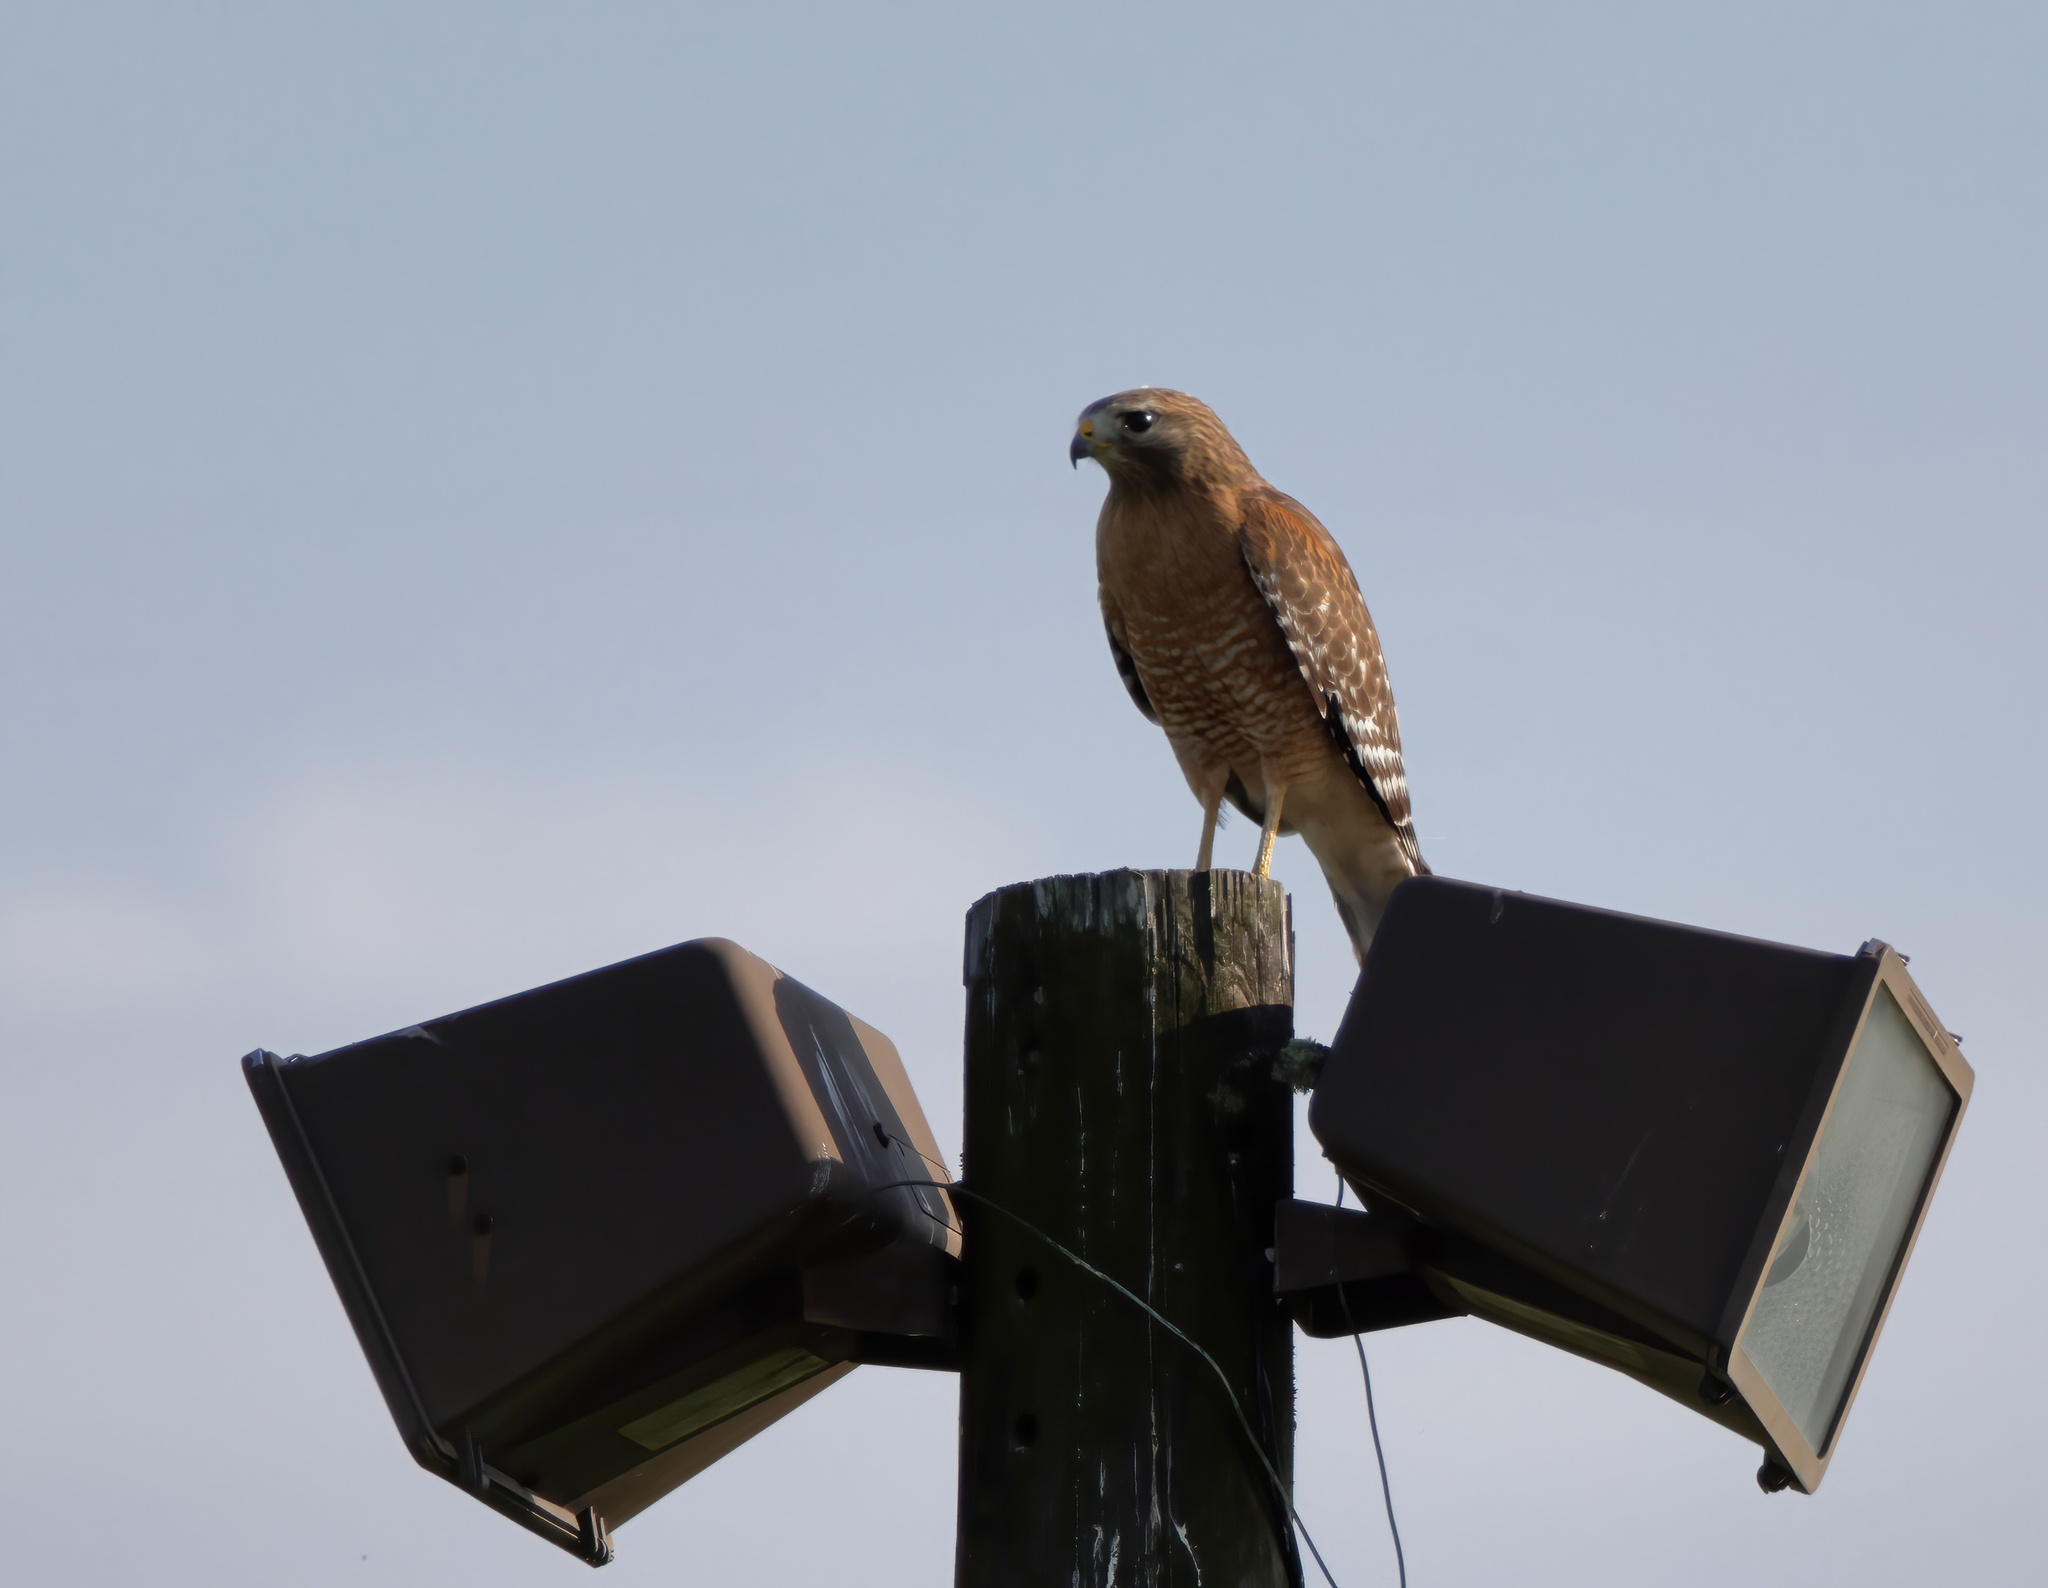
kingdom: Animalia
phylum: Chordata
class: Aves
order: Accipitriformes
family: Accipitridae
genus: Buteo
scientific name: Buteo lineatus
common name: Red-shouldered hawk
